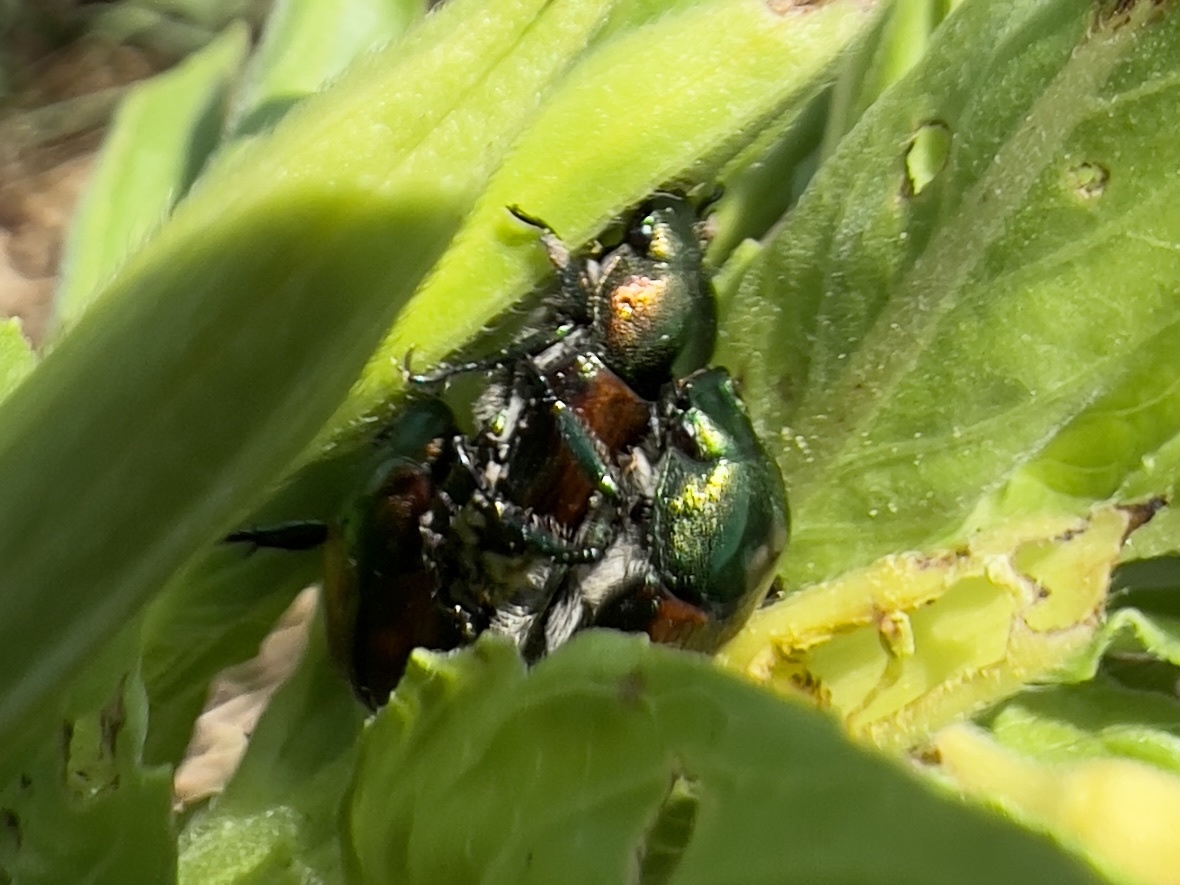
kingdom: Animalia
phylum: Arthropoda
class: Insecta
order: Coleoptera
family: Scarabaeidae
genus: Popillia
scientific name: Popillia japonica
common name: Japanese beetle
